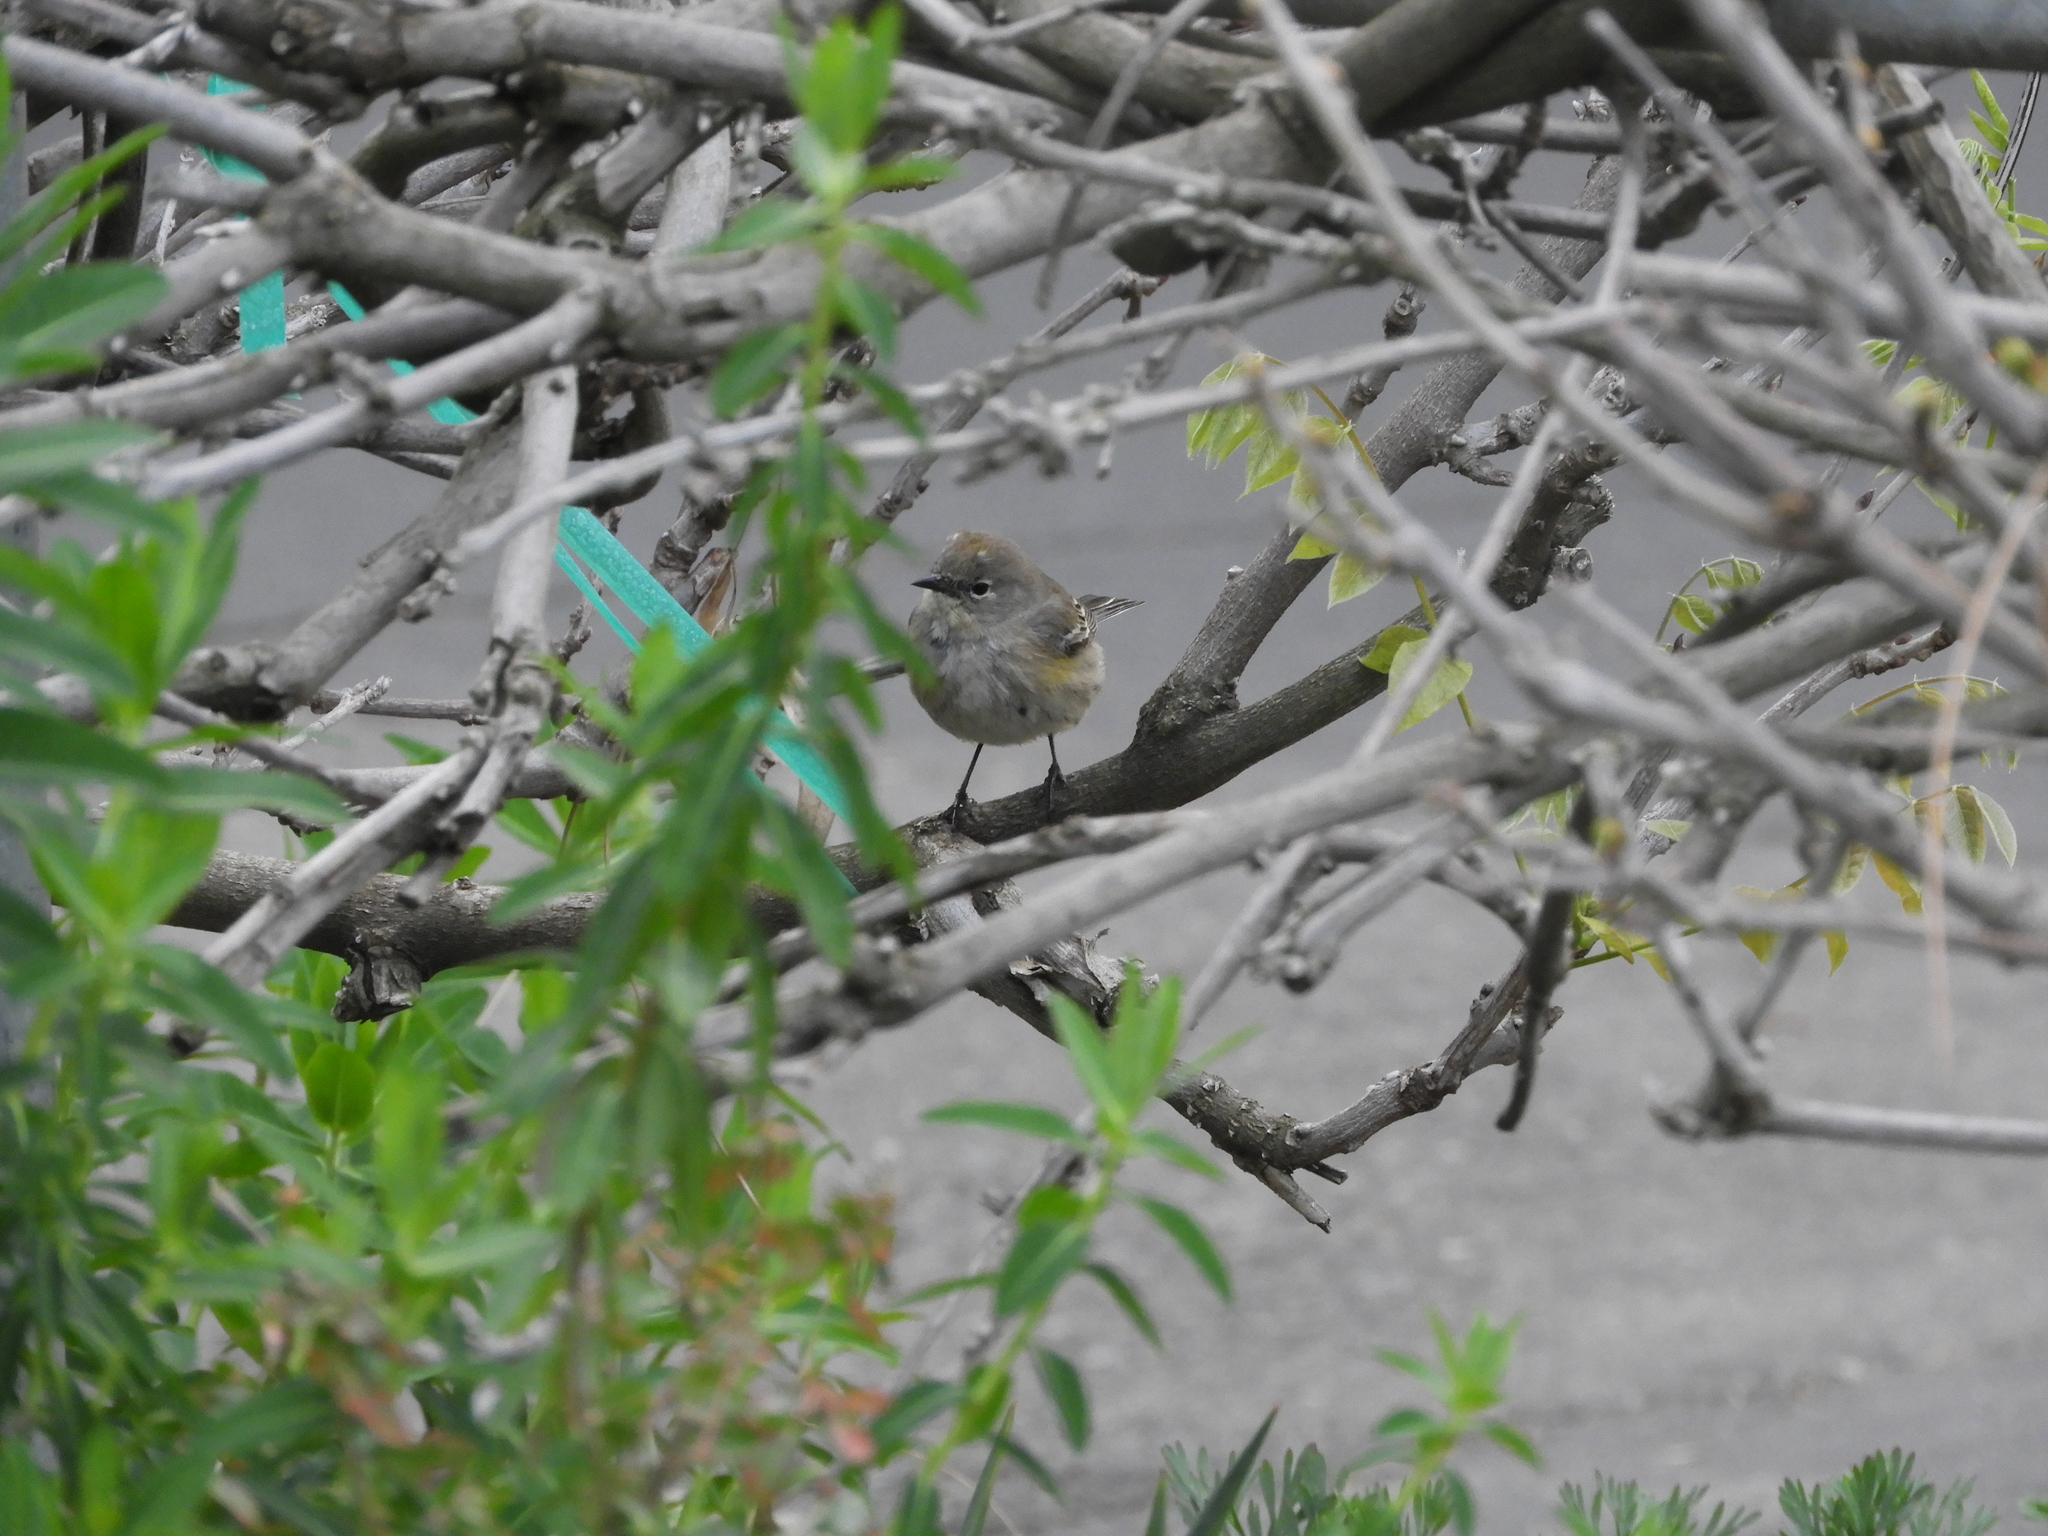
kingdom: Animalia
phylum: Chordata
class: Aves
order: Passeriformes
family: Parulidae
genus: Setophaga
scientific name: Setophaga auduboni
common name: Audubon's warbler
